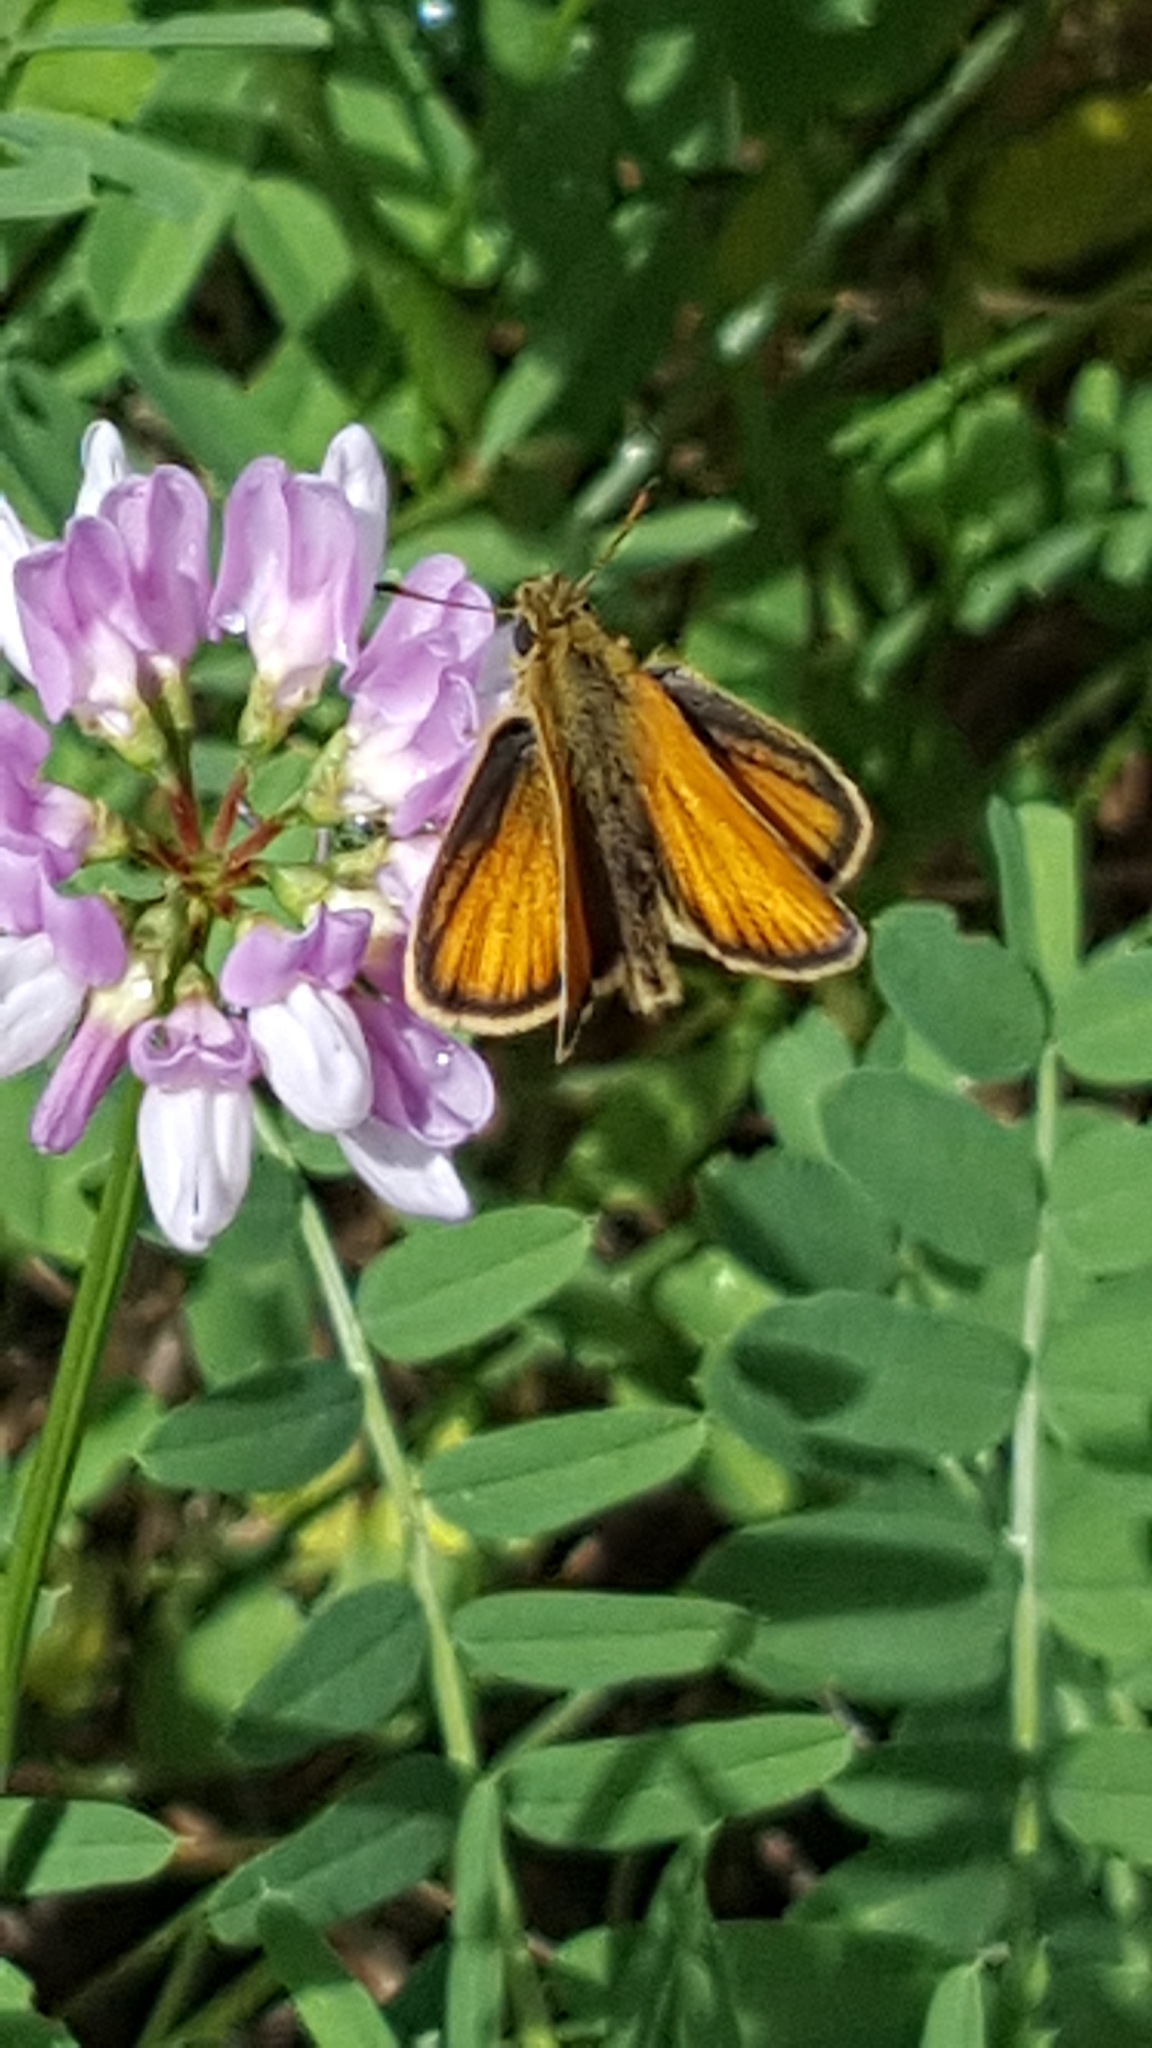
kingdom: Animalia
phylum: Arthropoda
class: Insecta
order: Lepidoptera
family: Hesperiidae
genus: Thymelicus
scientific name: Thymelicus lineola
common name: Essex skipper
